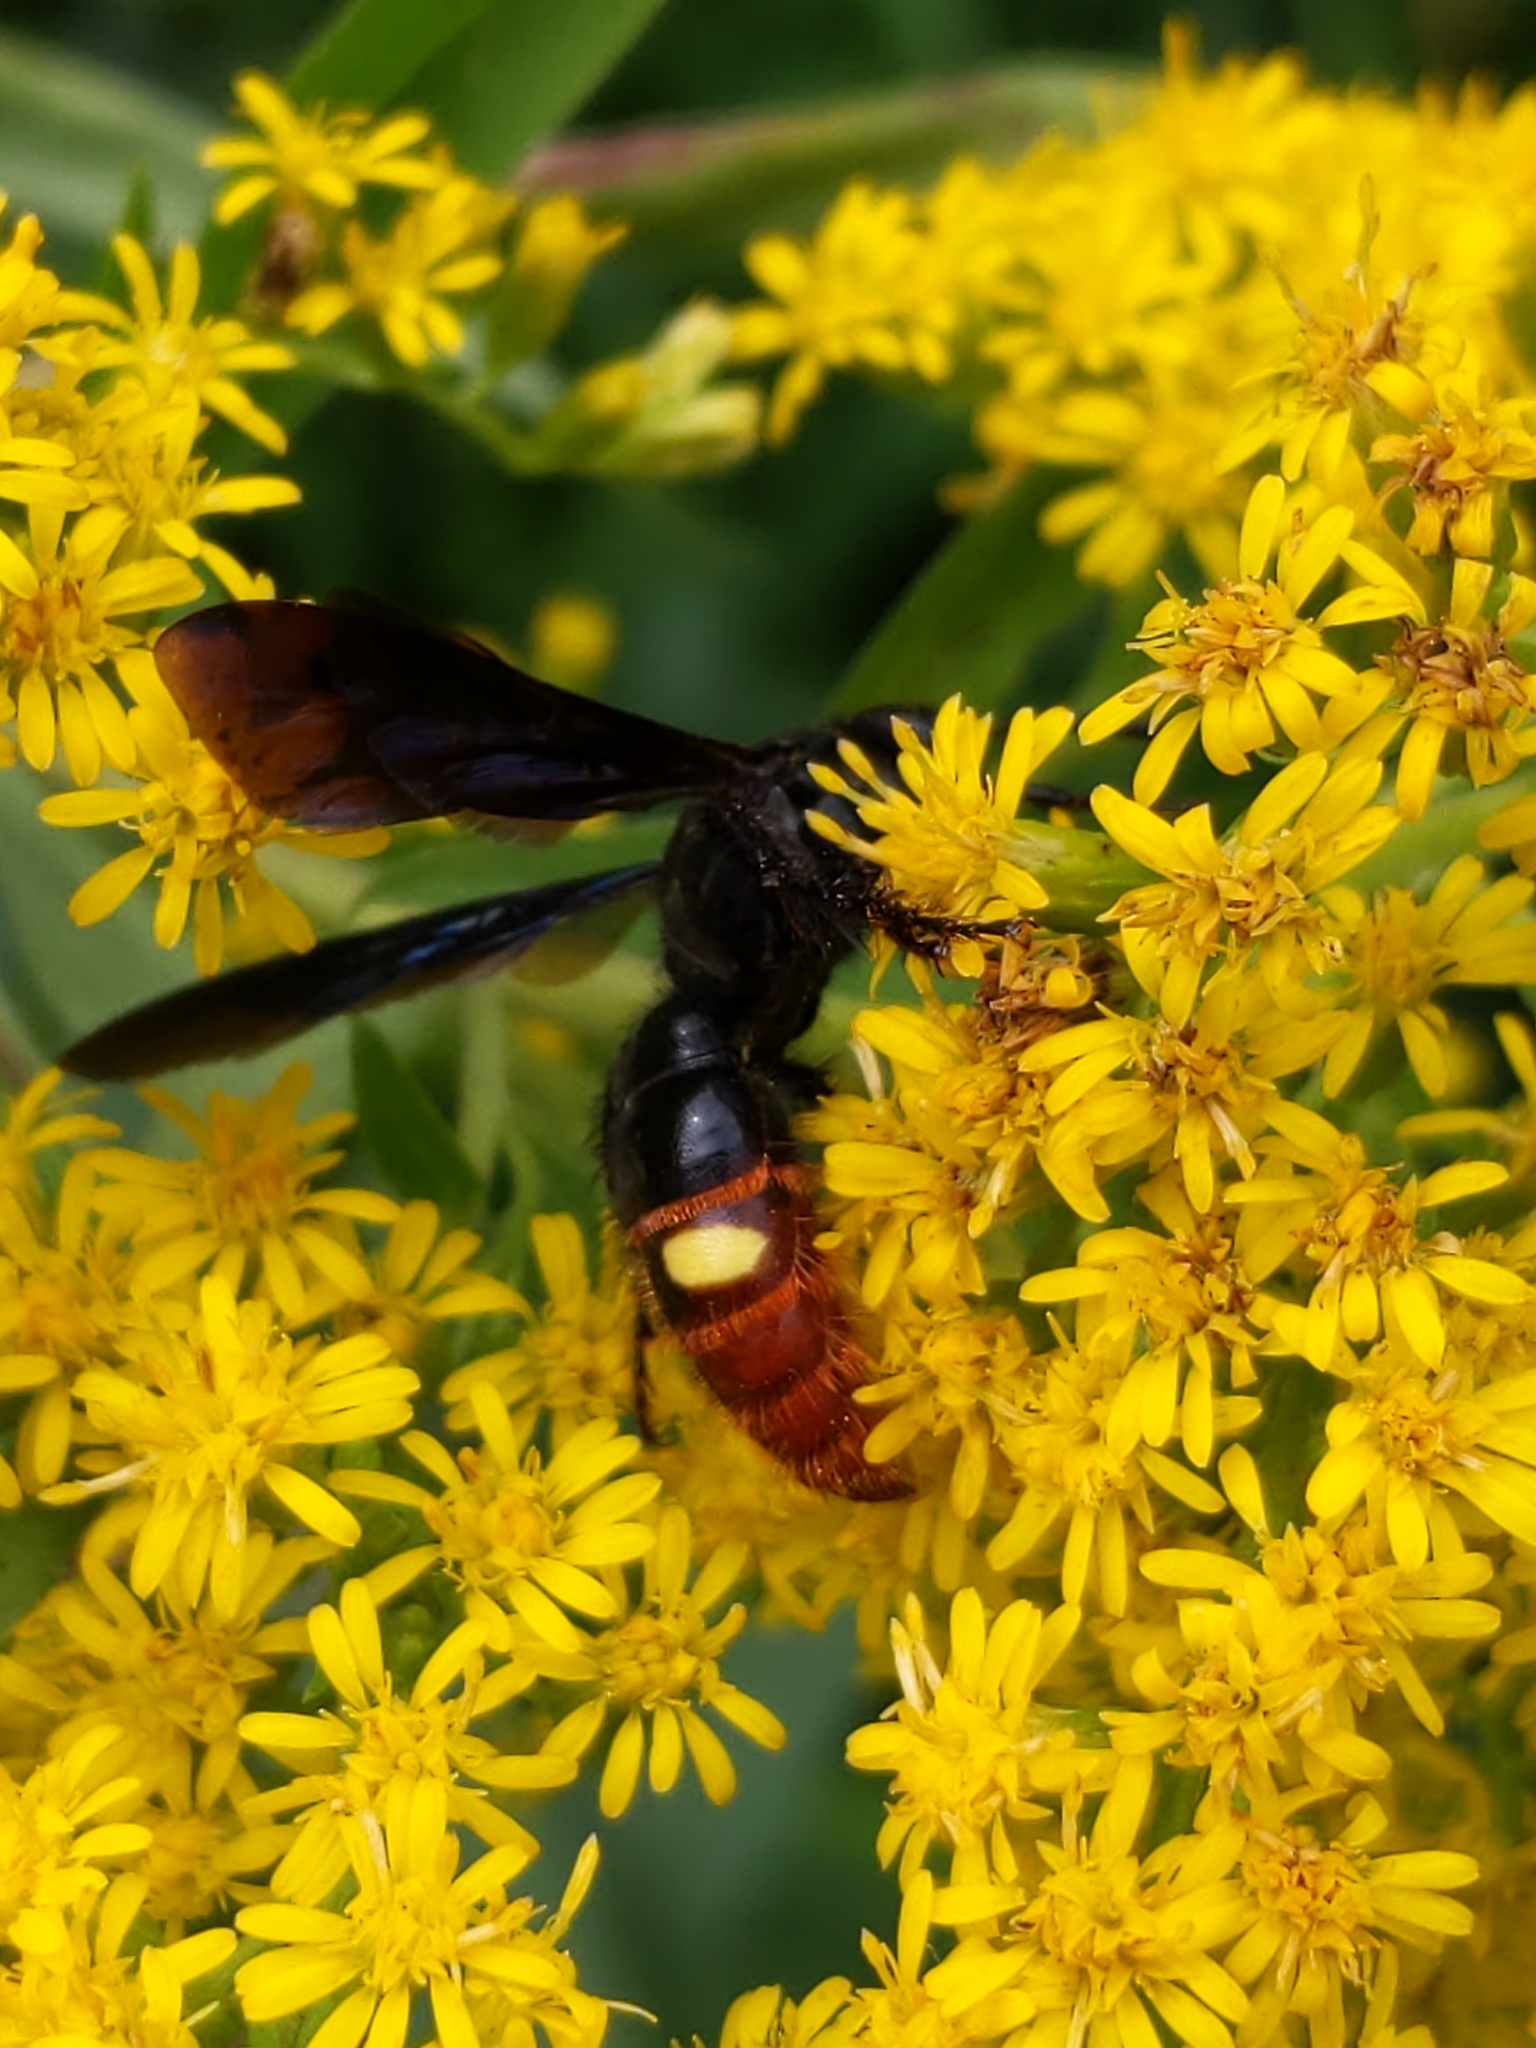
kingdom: Animalia
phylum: Arthropoda
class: Insecta
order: Hymenoptera
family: Scoliidae
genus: Scolia
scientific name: Scolia dubia
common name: Blue-winged scoliid wasp
